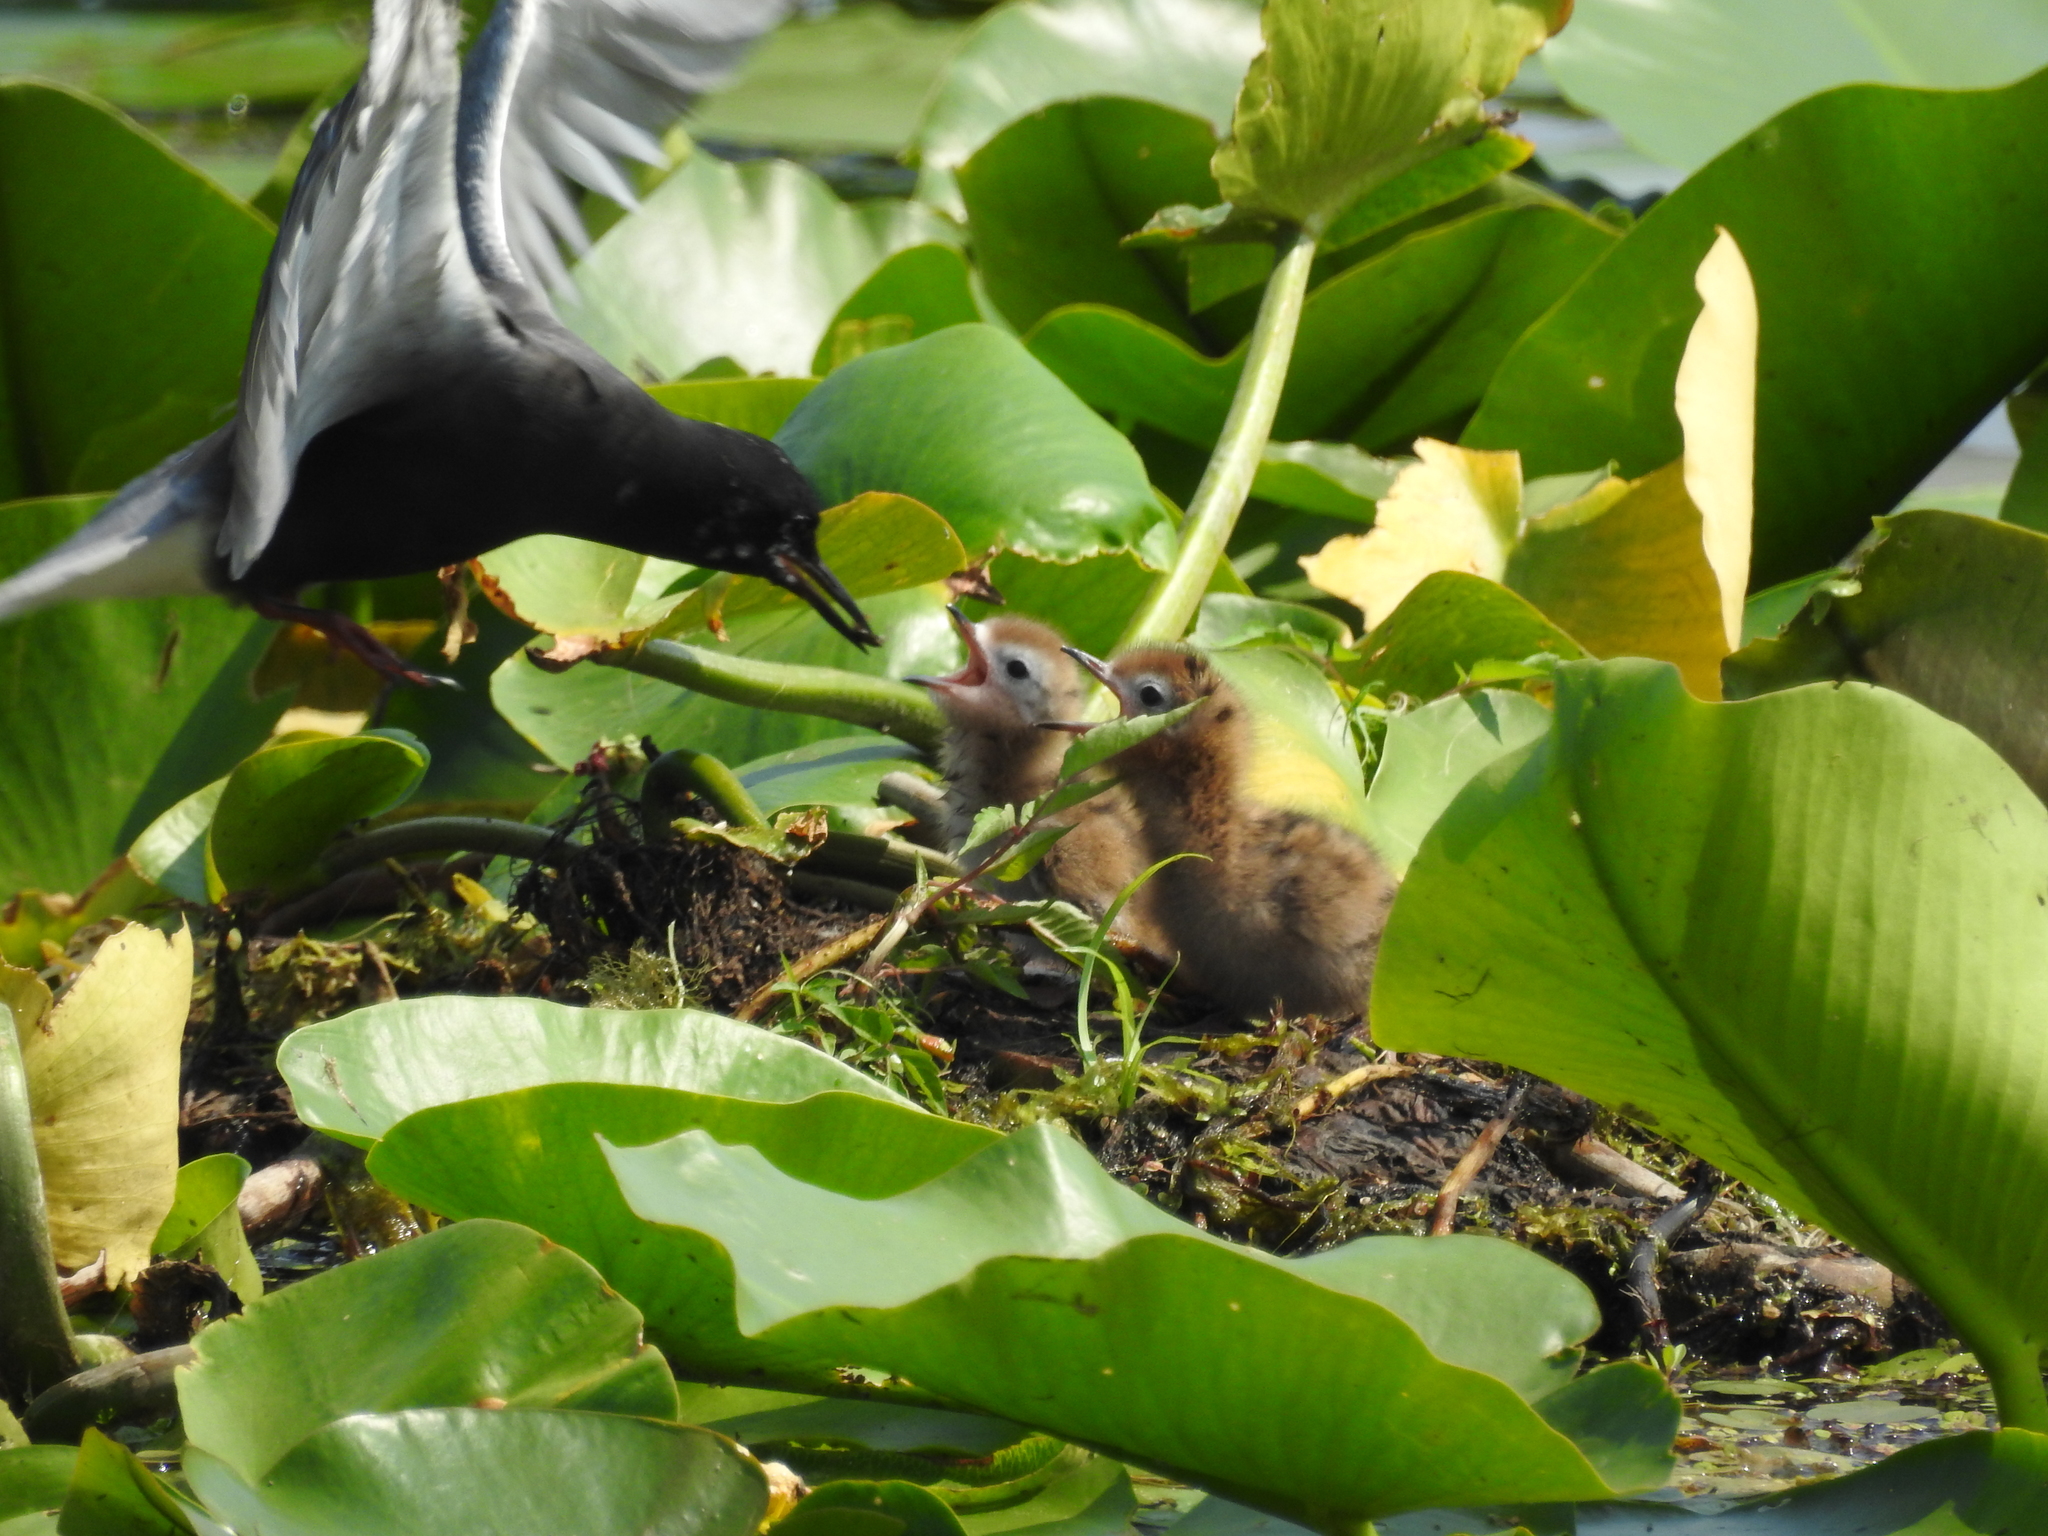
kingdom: Animalia
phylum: Chordata
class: Aves
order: Charadriiformes
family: Laridae
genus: Chlidonias
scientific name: Chlidonias niger
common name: Black tern
